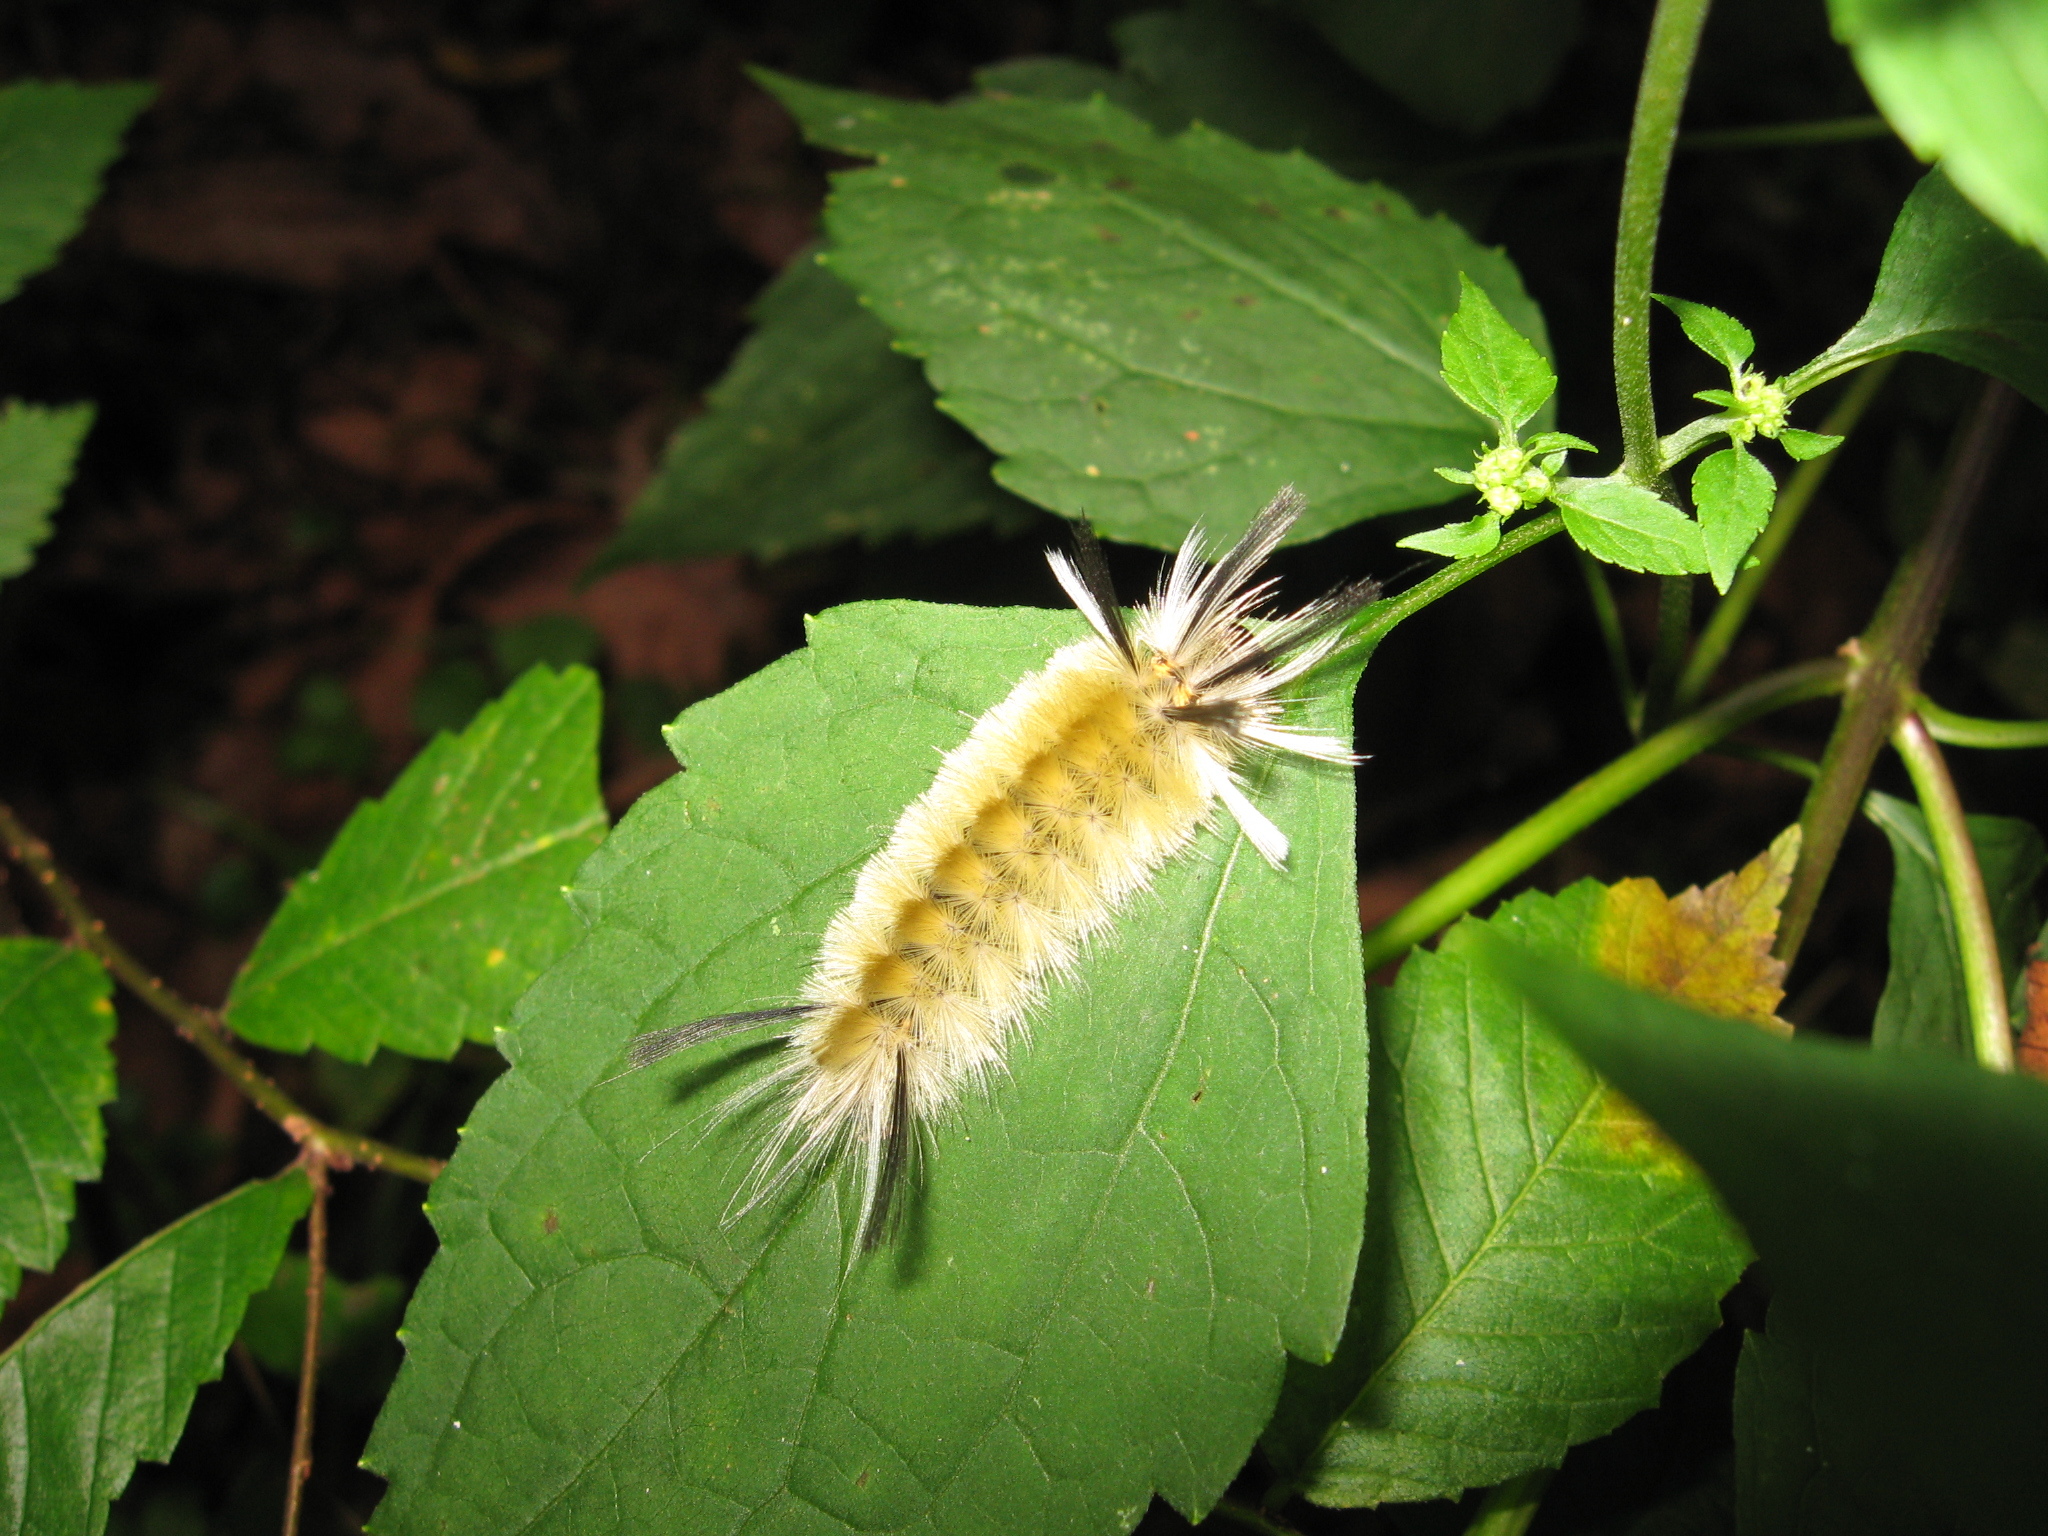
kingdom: Animalia
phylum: Arthropoda
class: Insecta
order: Lepidoptera
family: Erebidae
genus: Halysidota
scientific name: Halysidota tessellaris
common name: Banded tussock moth
